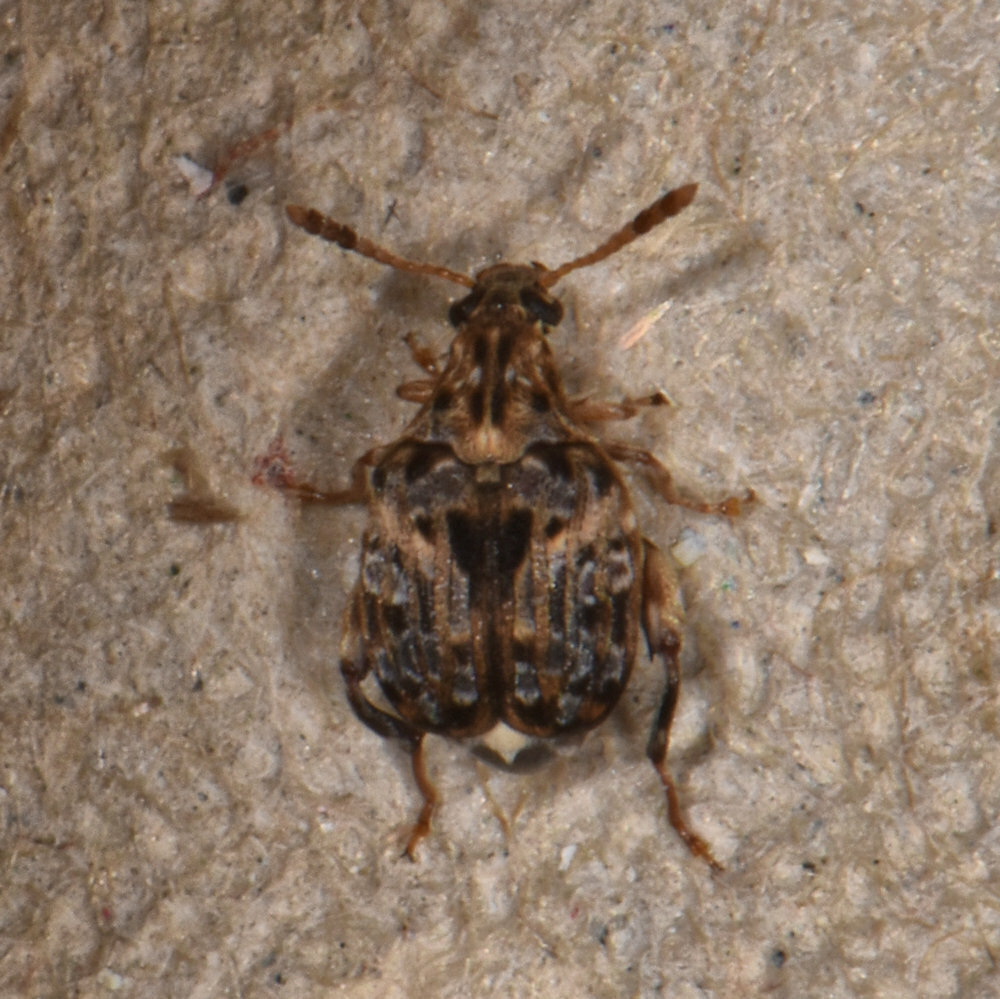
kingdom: Animalia
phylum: Arthropoda
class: Insecta
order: Coleoptera
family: Chrysomelidae
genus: Gibbobruchus
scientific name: Gibbobruchus mimus
